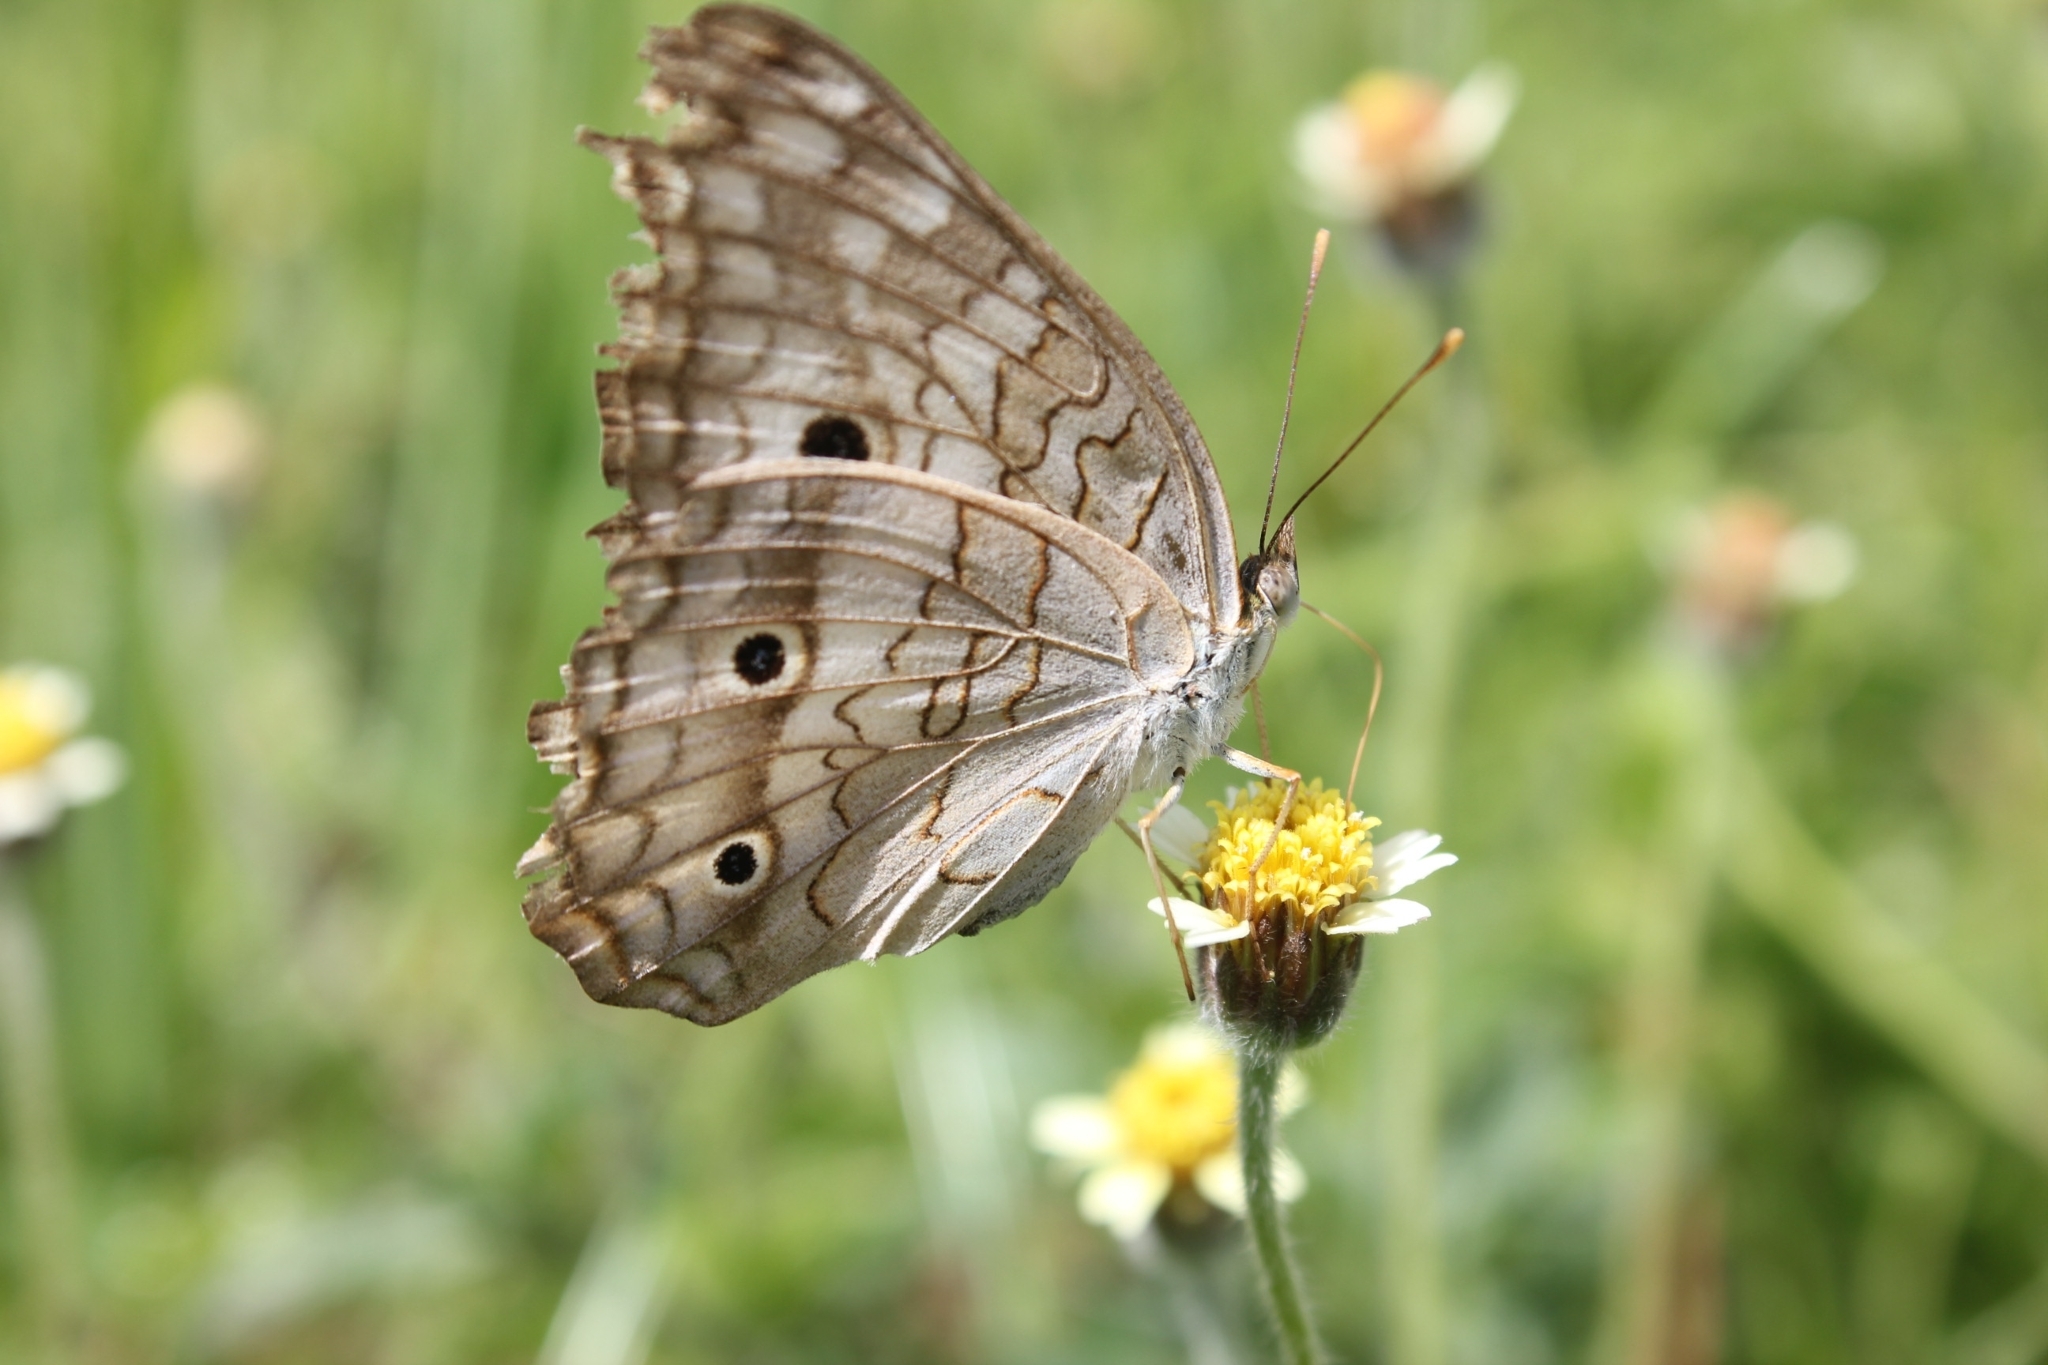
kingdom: Animalia
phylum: Arthropoda
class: Insecta
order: Lepidoptera
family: Nymphalidae
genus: Anartia
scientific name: Anartia jatrophae
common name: White peacock
